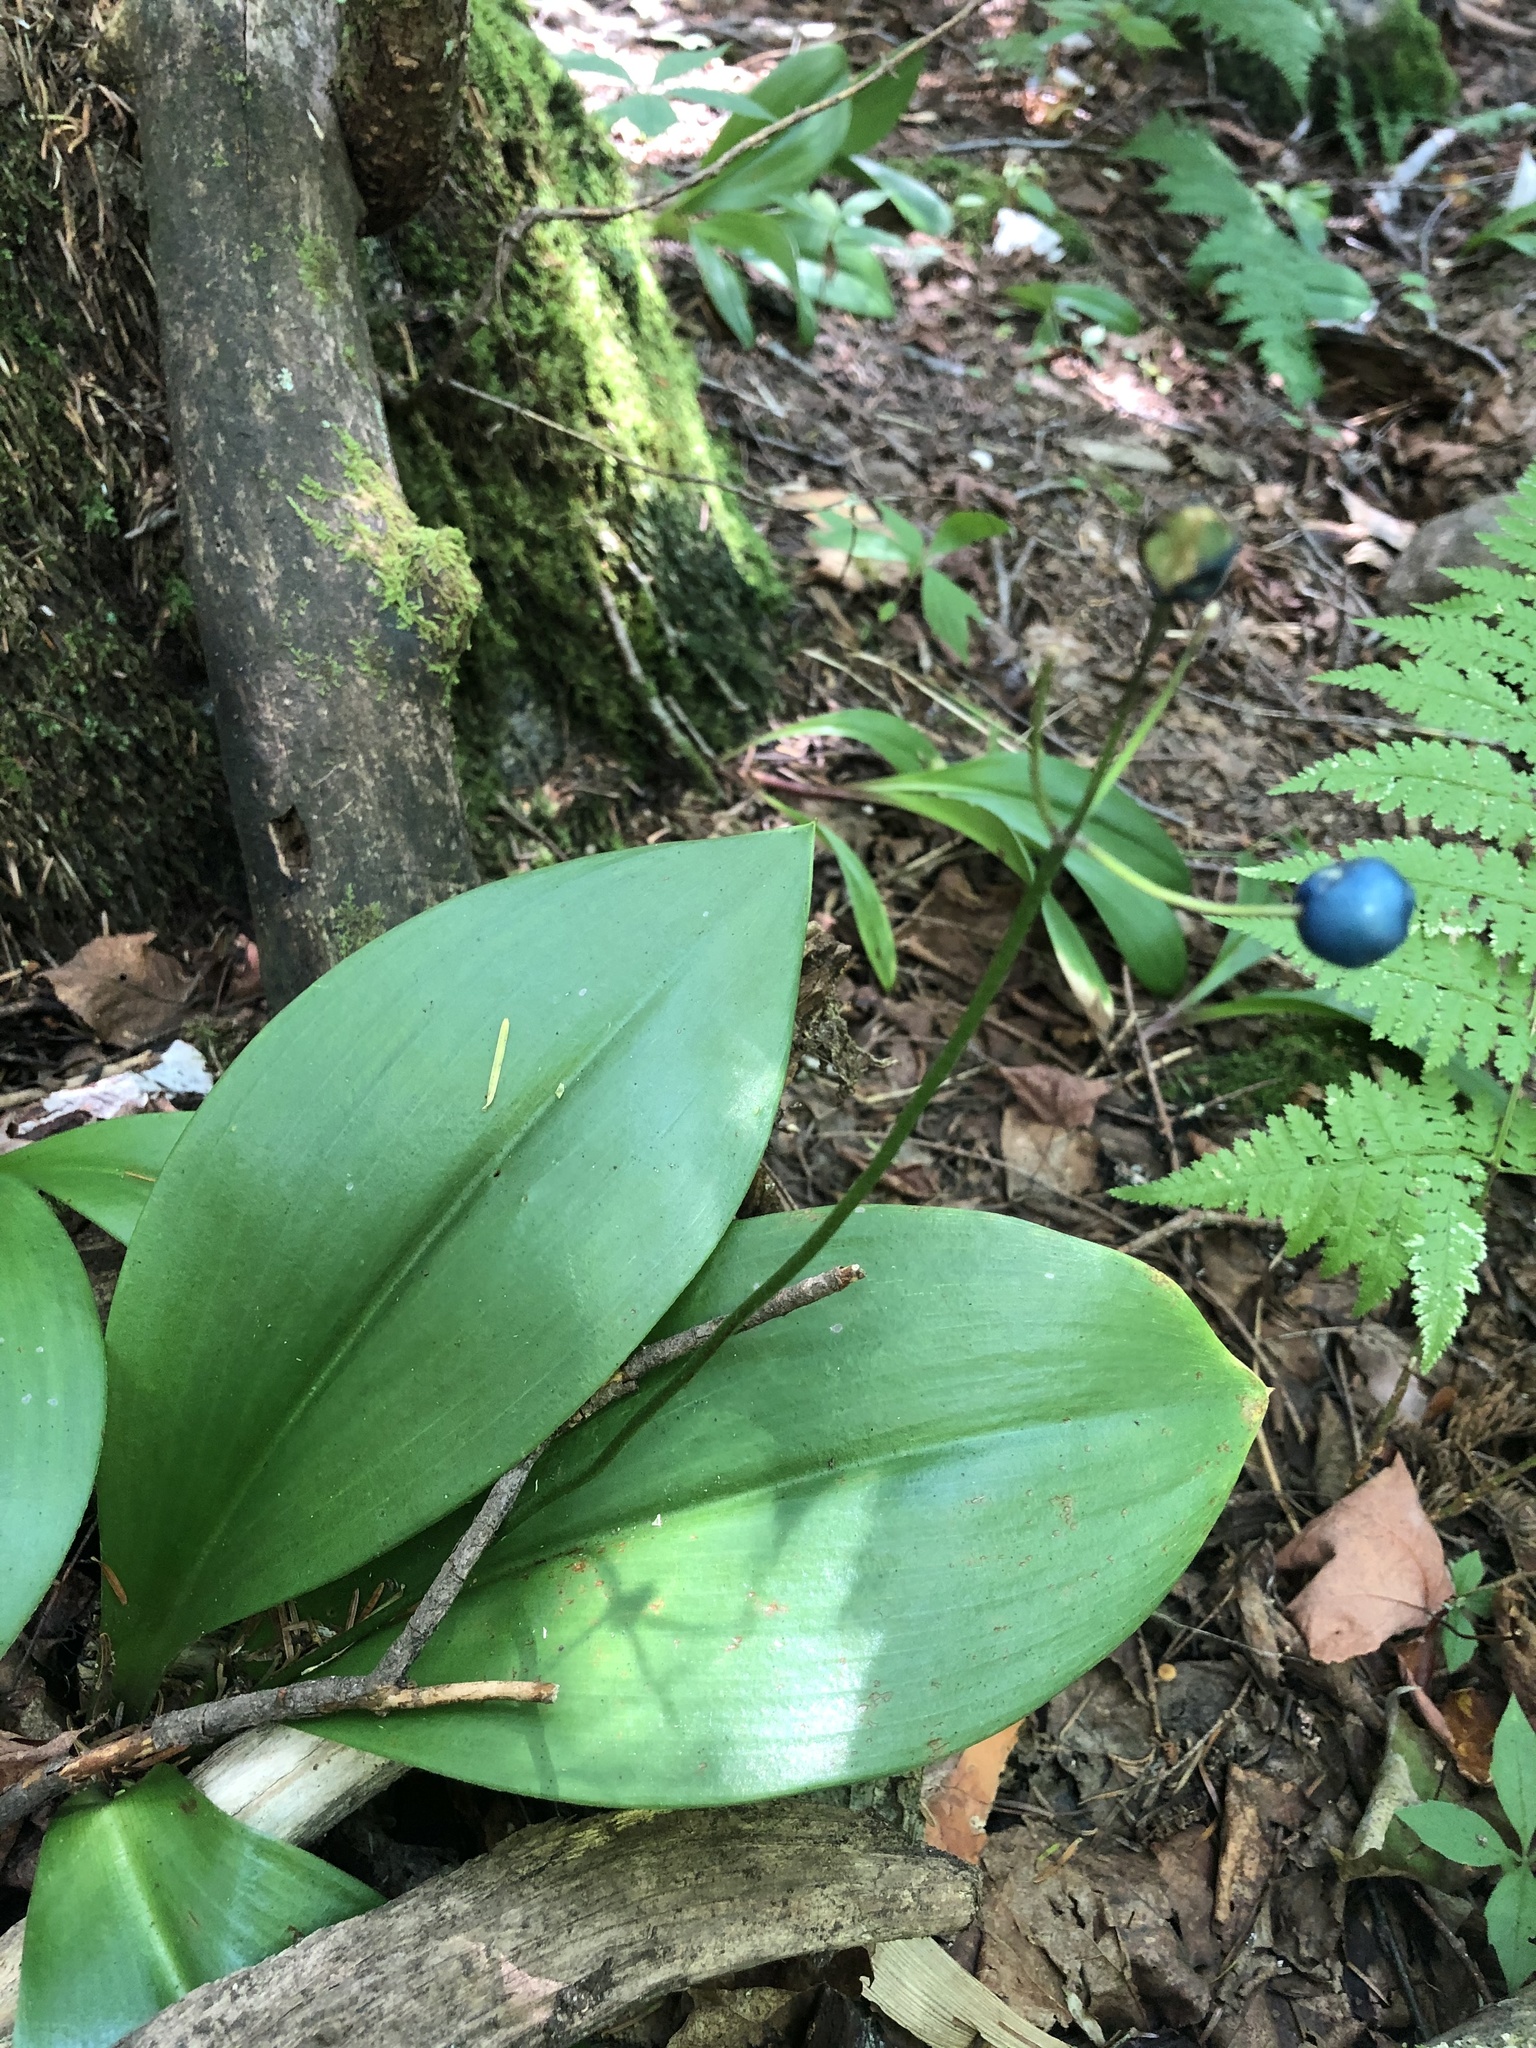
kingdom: Plantae
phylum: Tracheophyta
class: Liliopsida
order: Liliales
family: Liliaceae
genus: Clintonia
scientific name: Clintonia borealis
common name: Yellow clintonia
